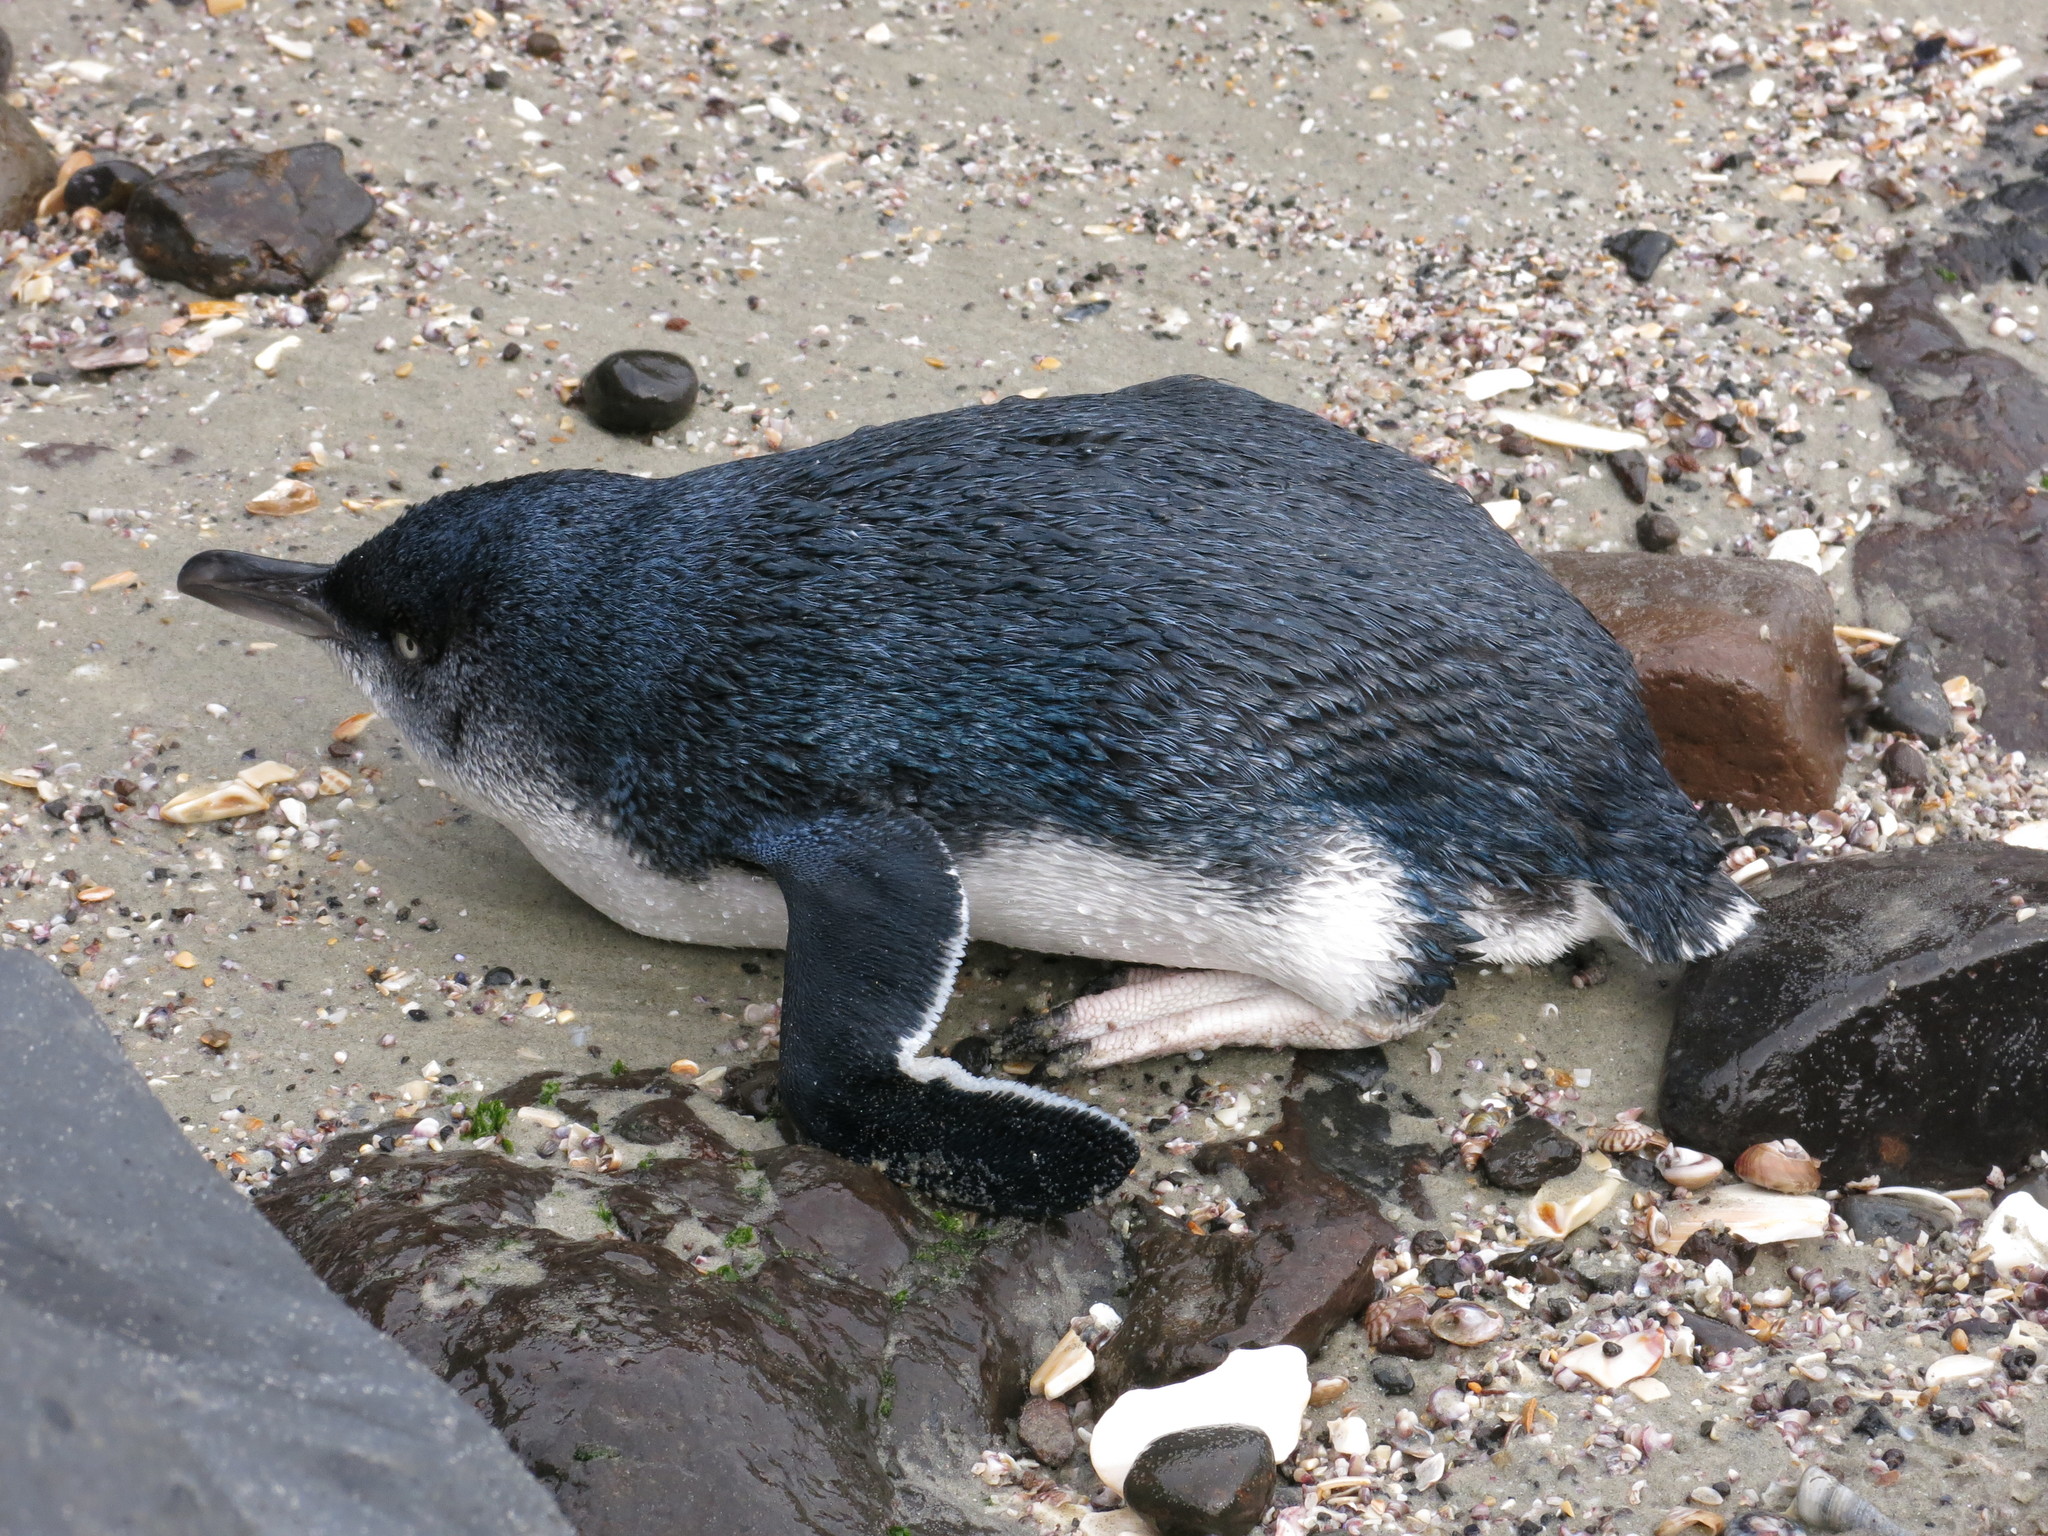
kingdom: Animalia
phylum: Chordata
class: Aves
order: Sphenisciformes
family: Spheniscidae
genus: Eudyptula
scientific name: Eudyptula minor
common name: Little penguin
